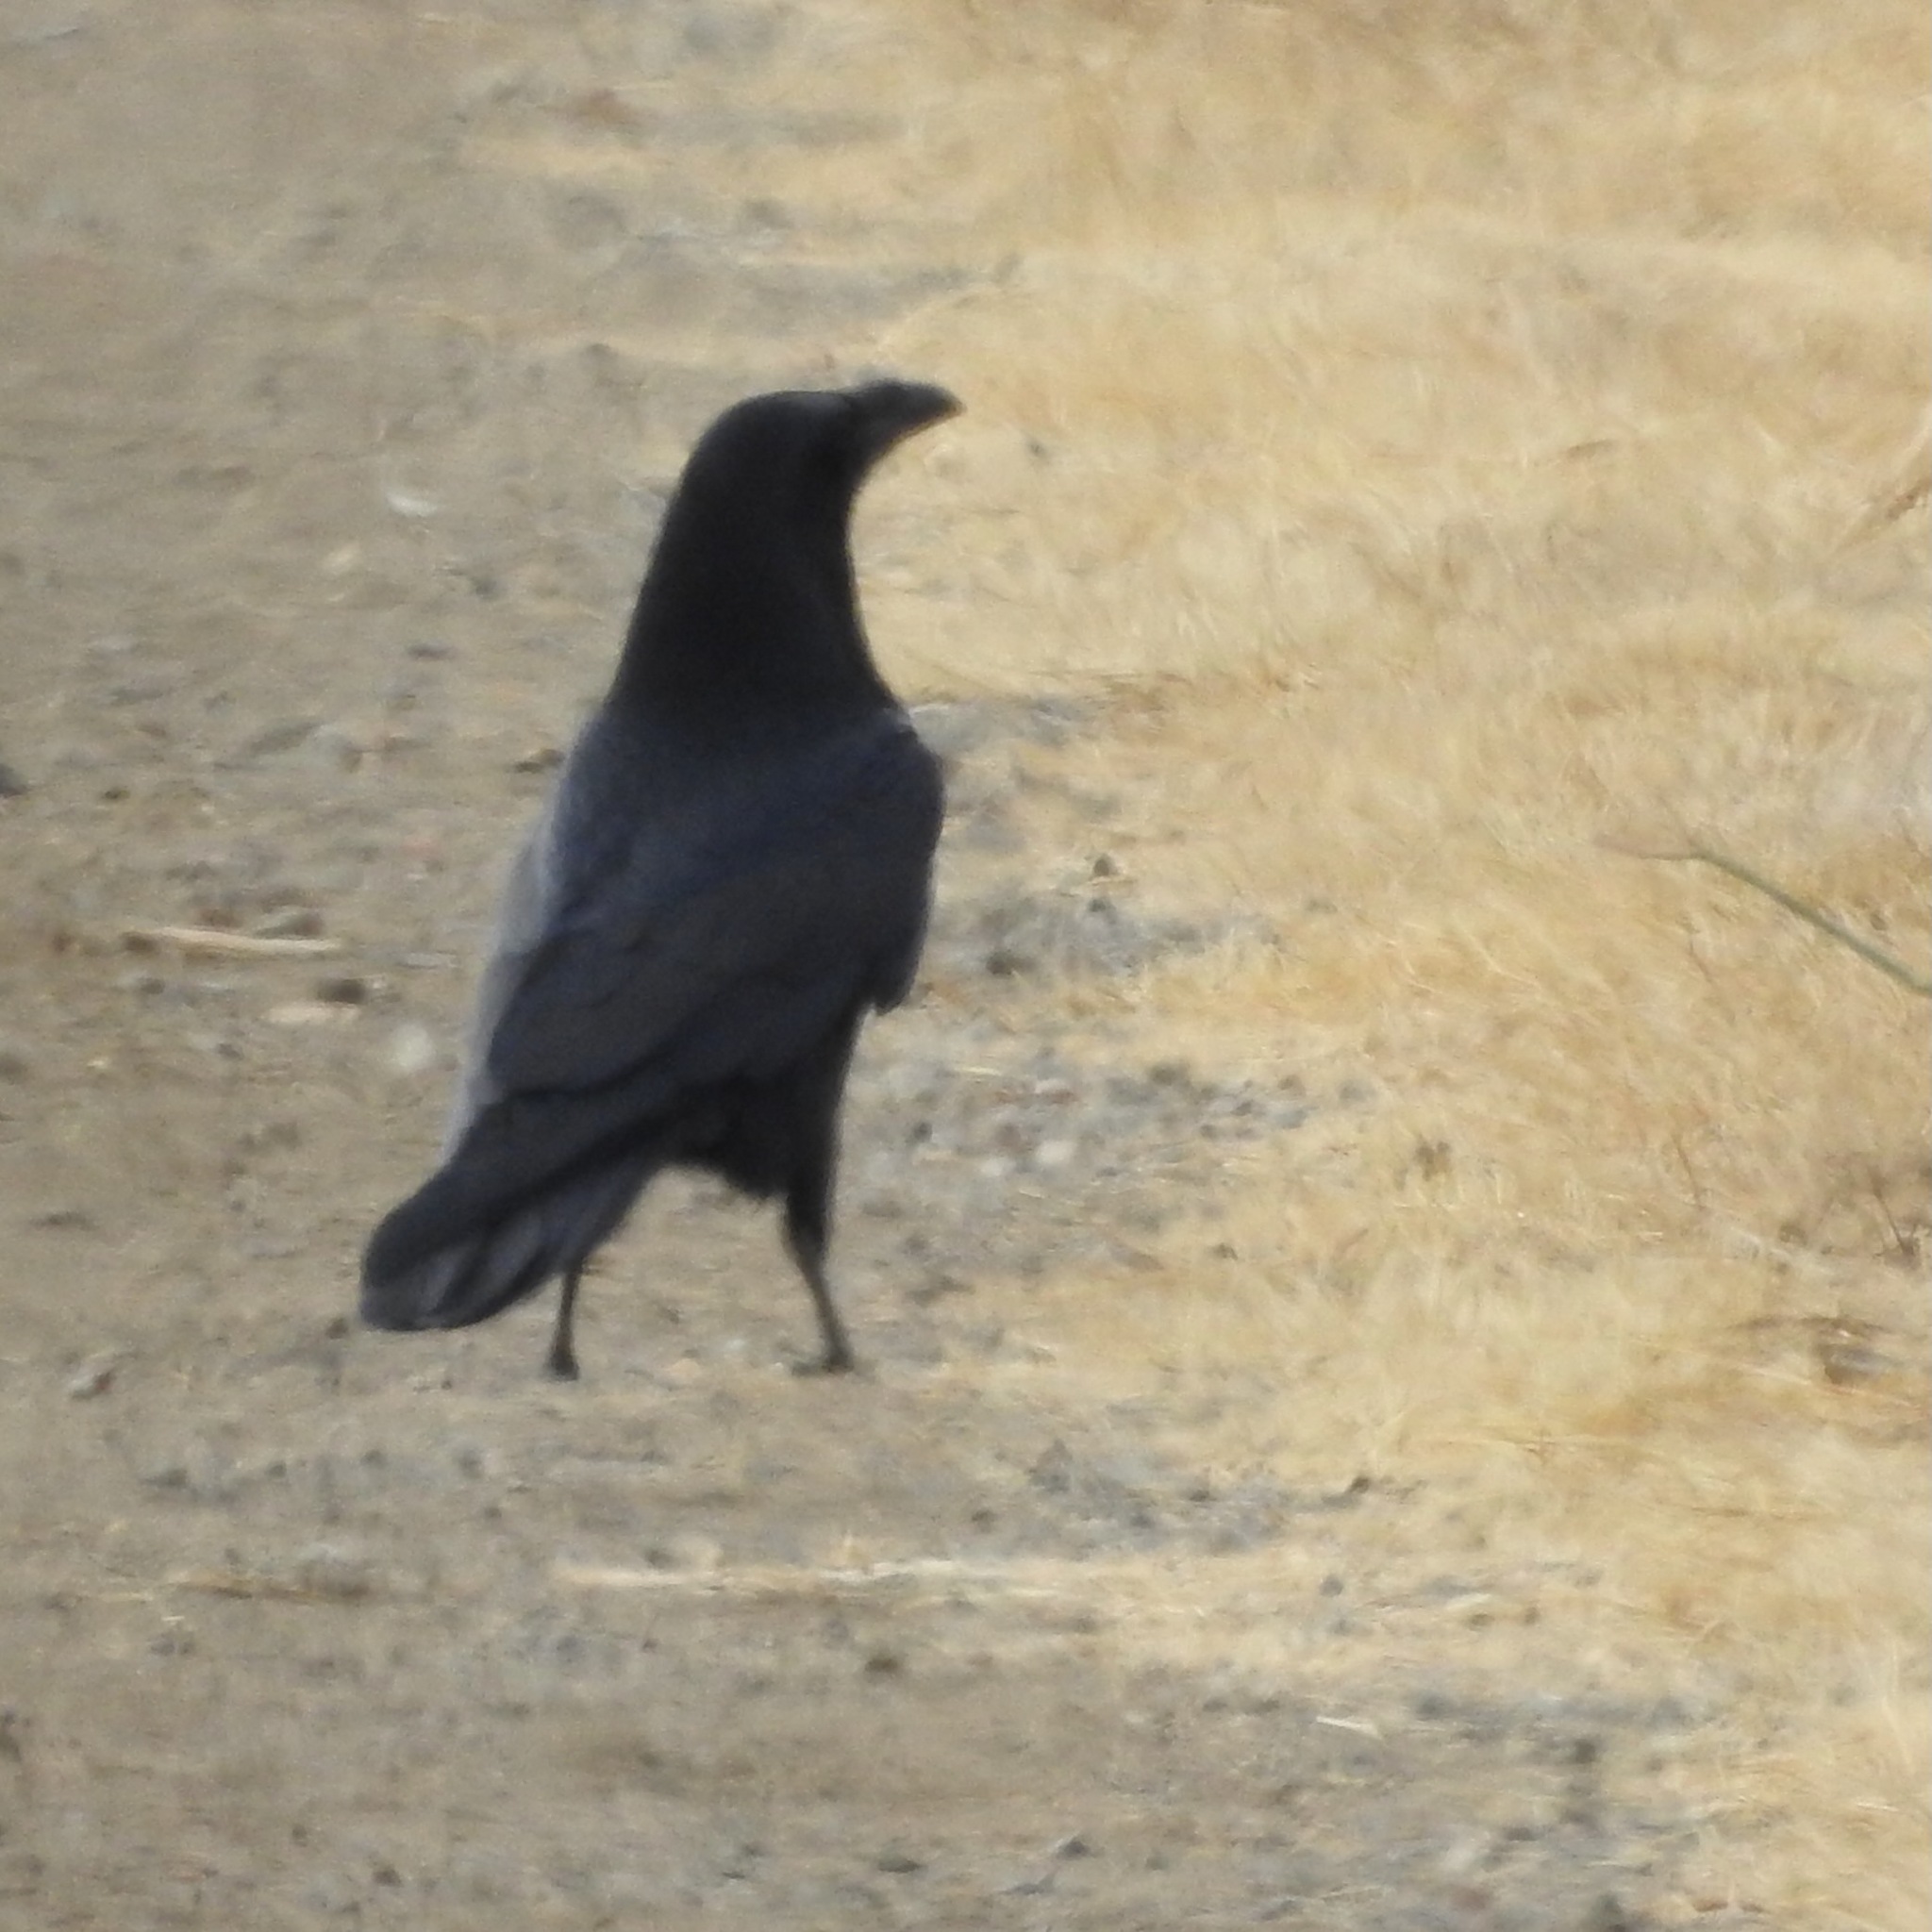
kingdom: Animalia
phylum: Chordata
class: Aves
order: Passeriformes
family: Corvidae
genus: Corvus
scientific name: Corvus corax
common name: Common raven
